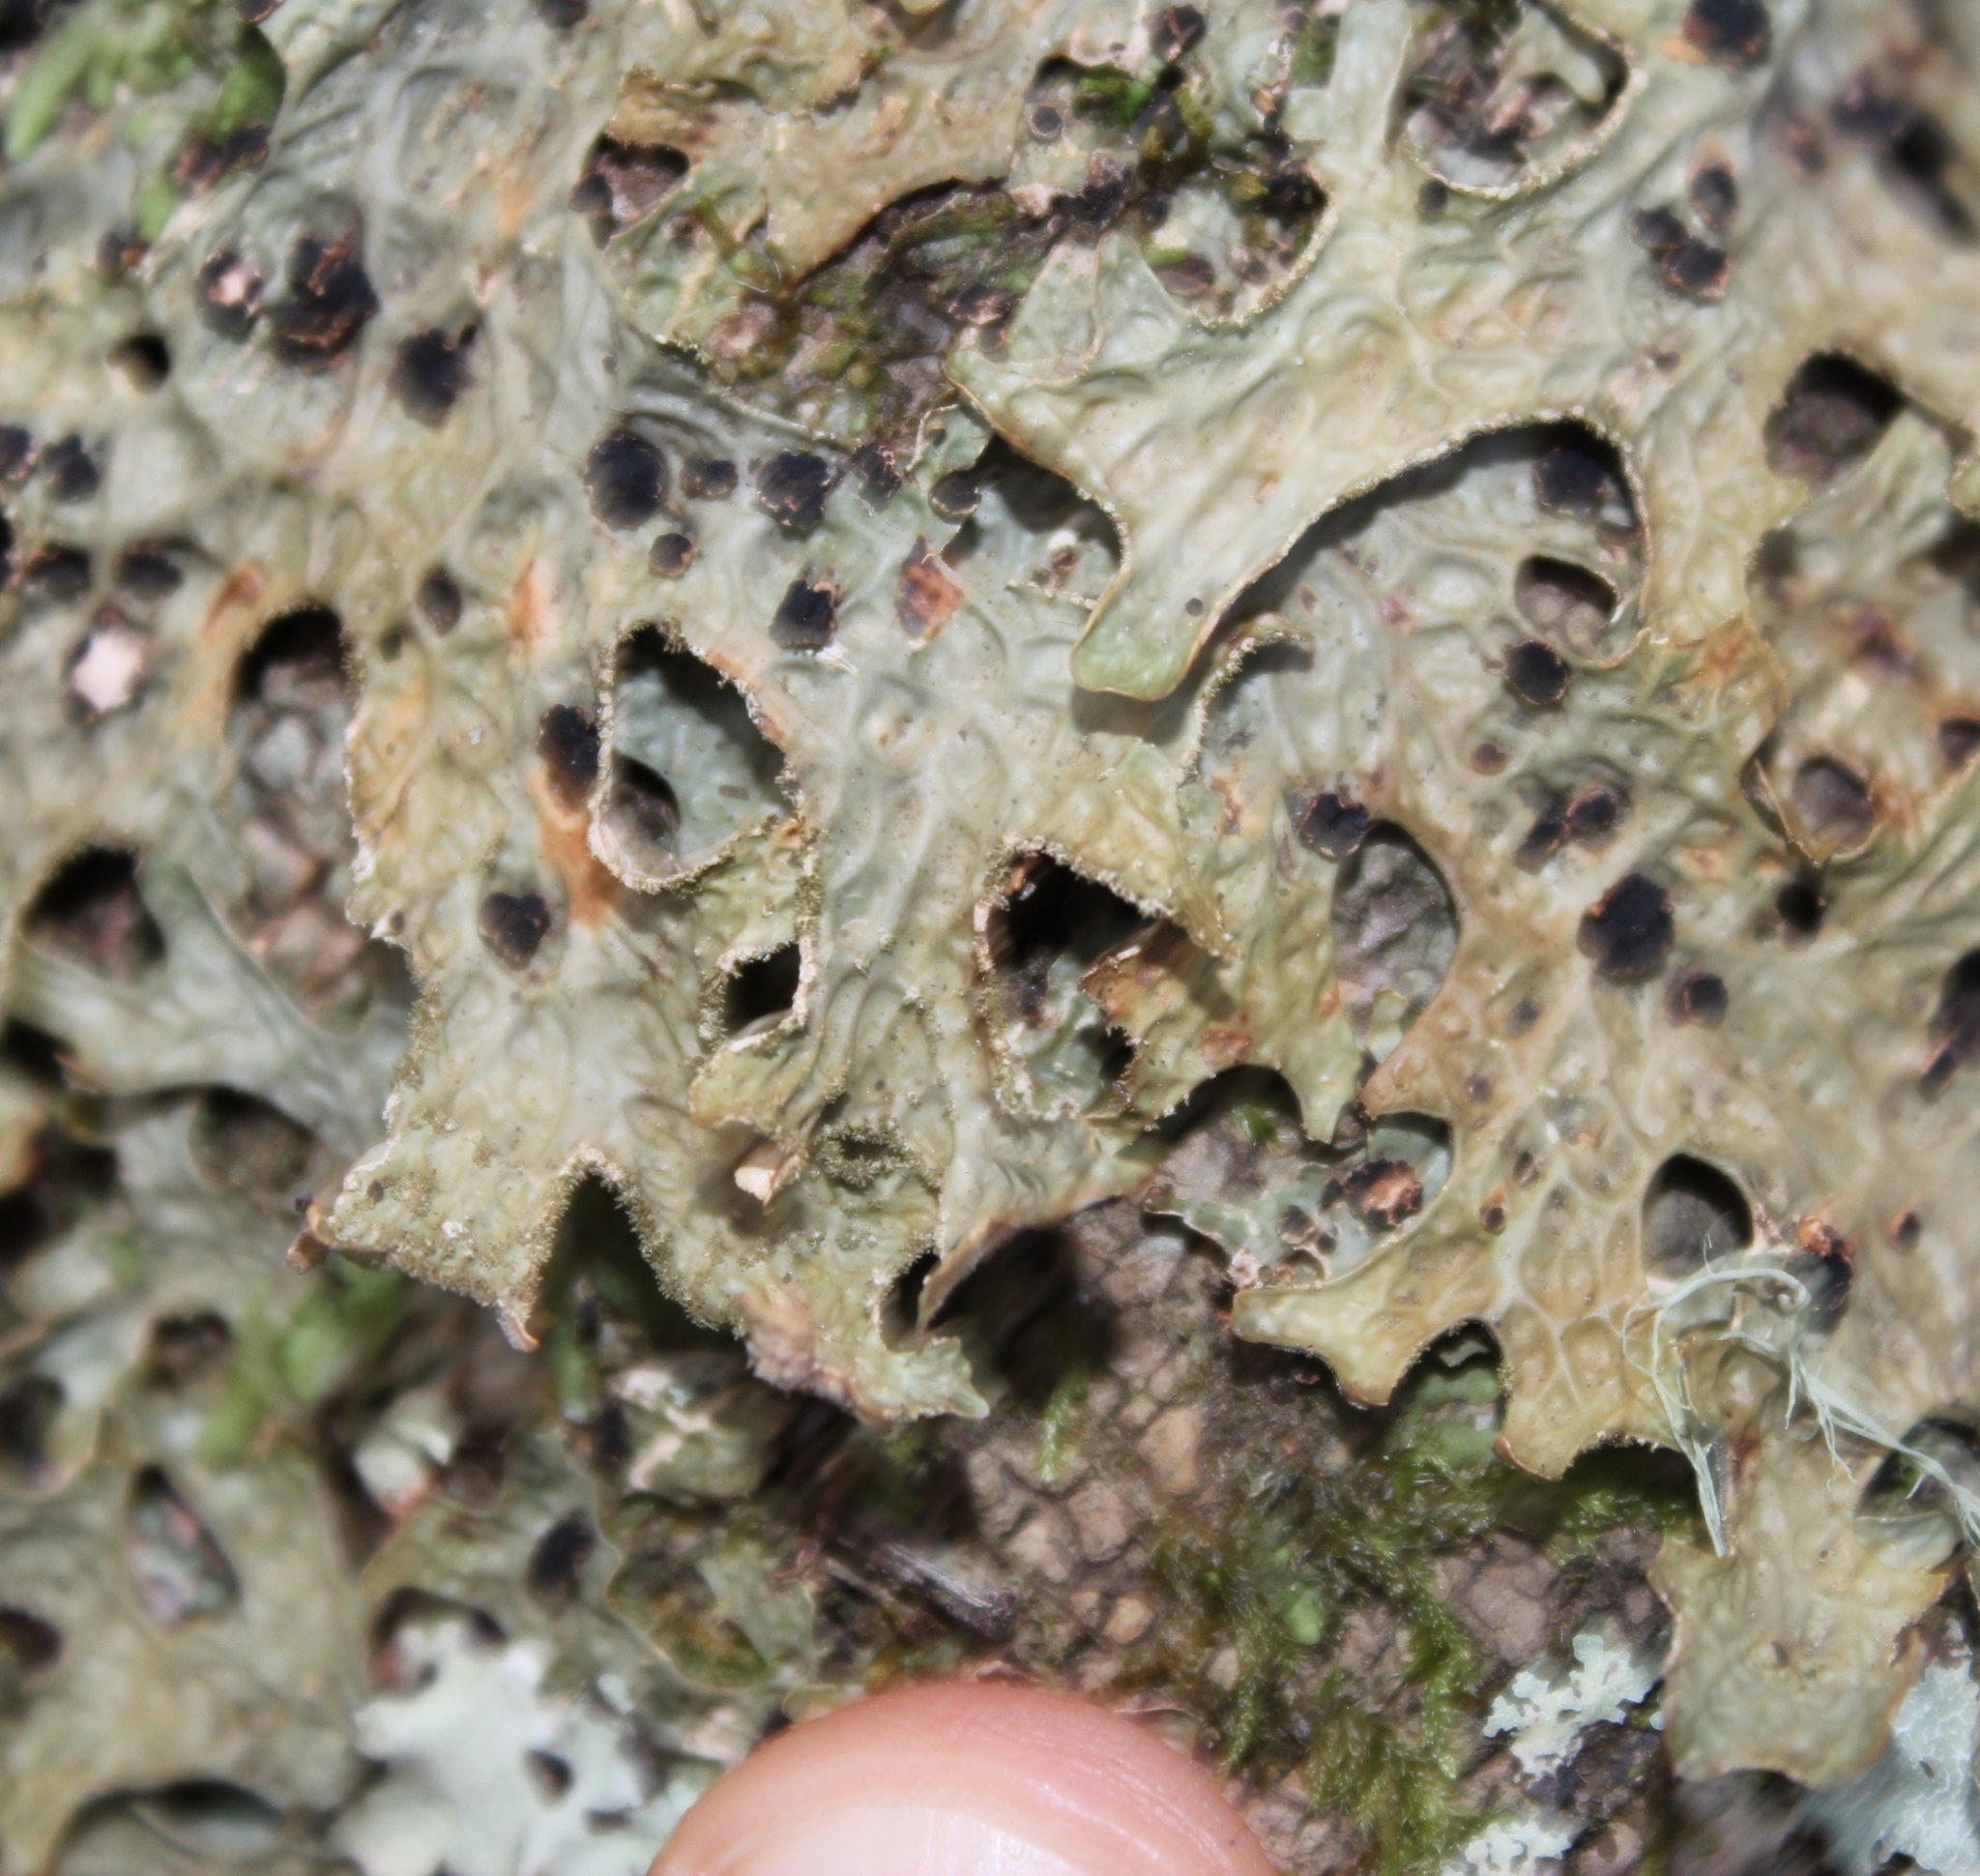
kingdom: Fungi
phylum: Ascomycota
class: Lecanoromycetes
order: Peltigerales
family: Lobariaceae
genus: Lobaria
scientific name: Lobaria pulmonaria
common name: Lungwort
